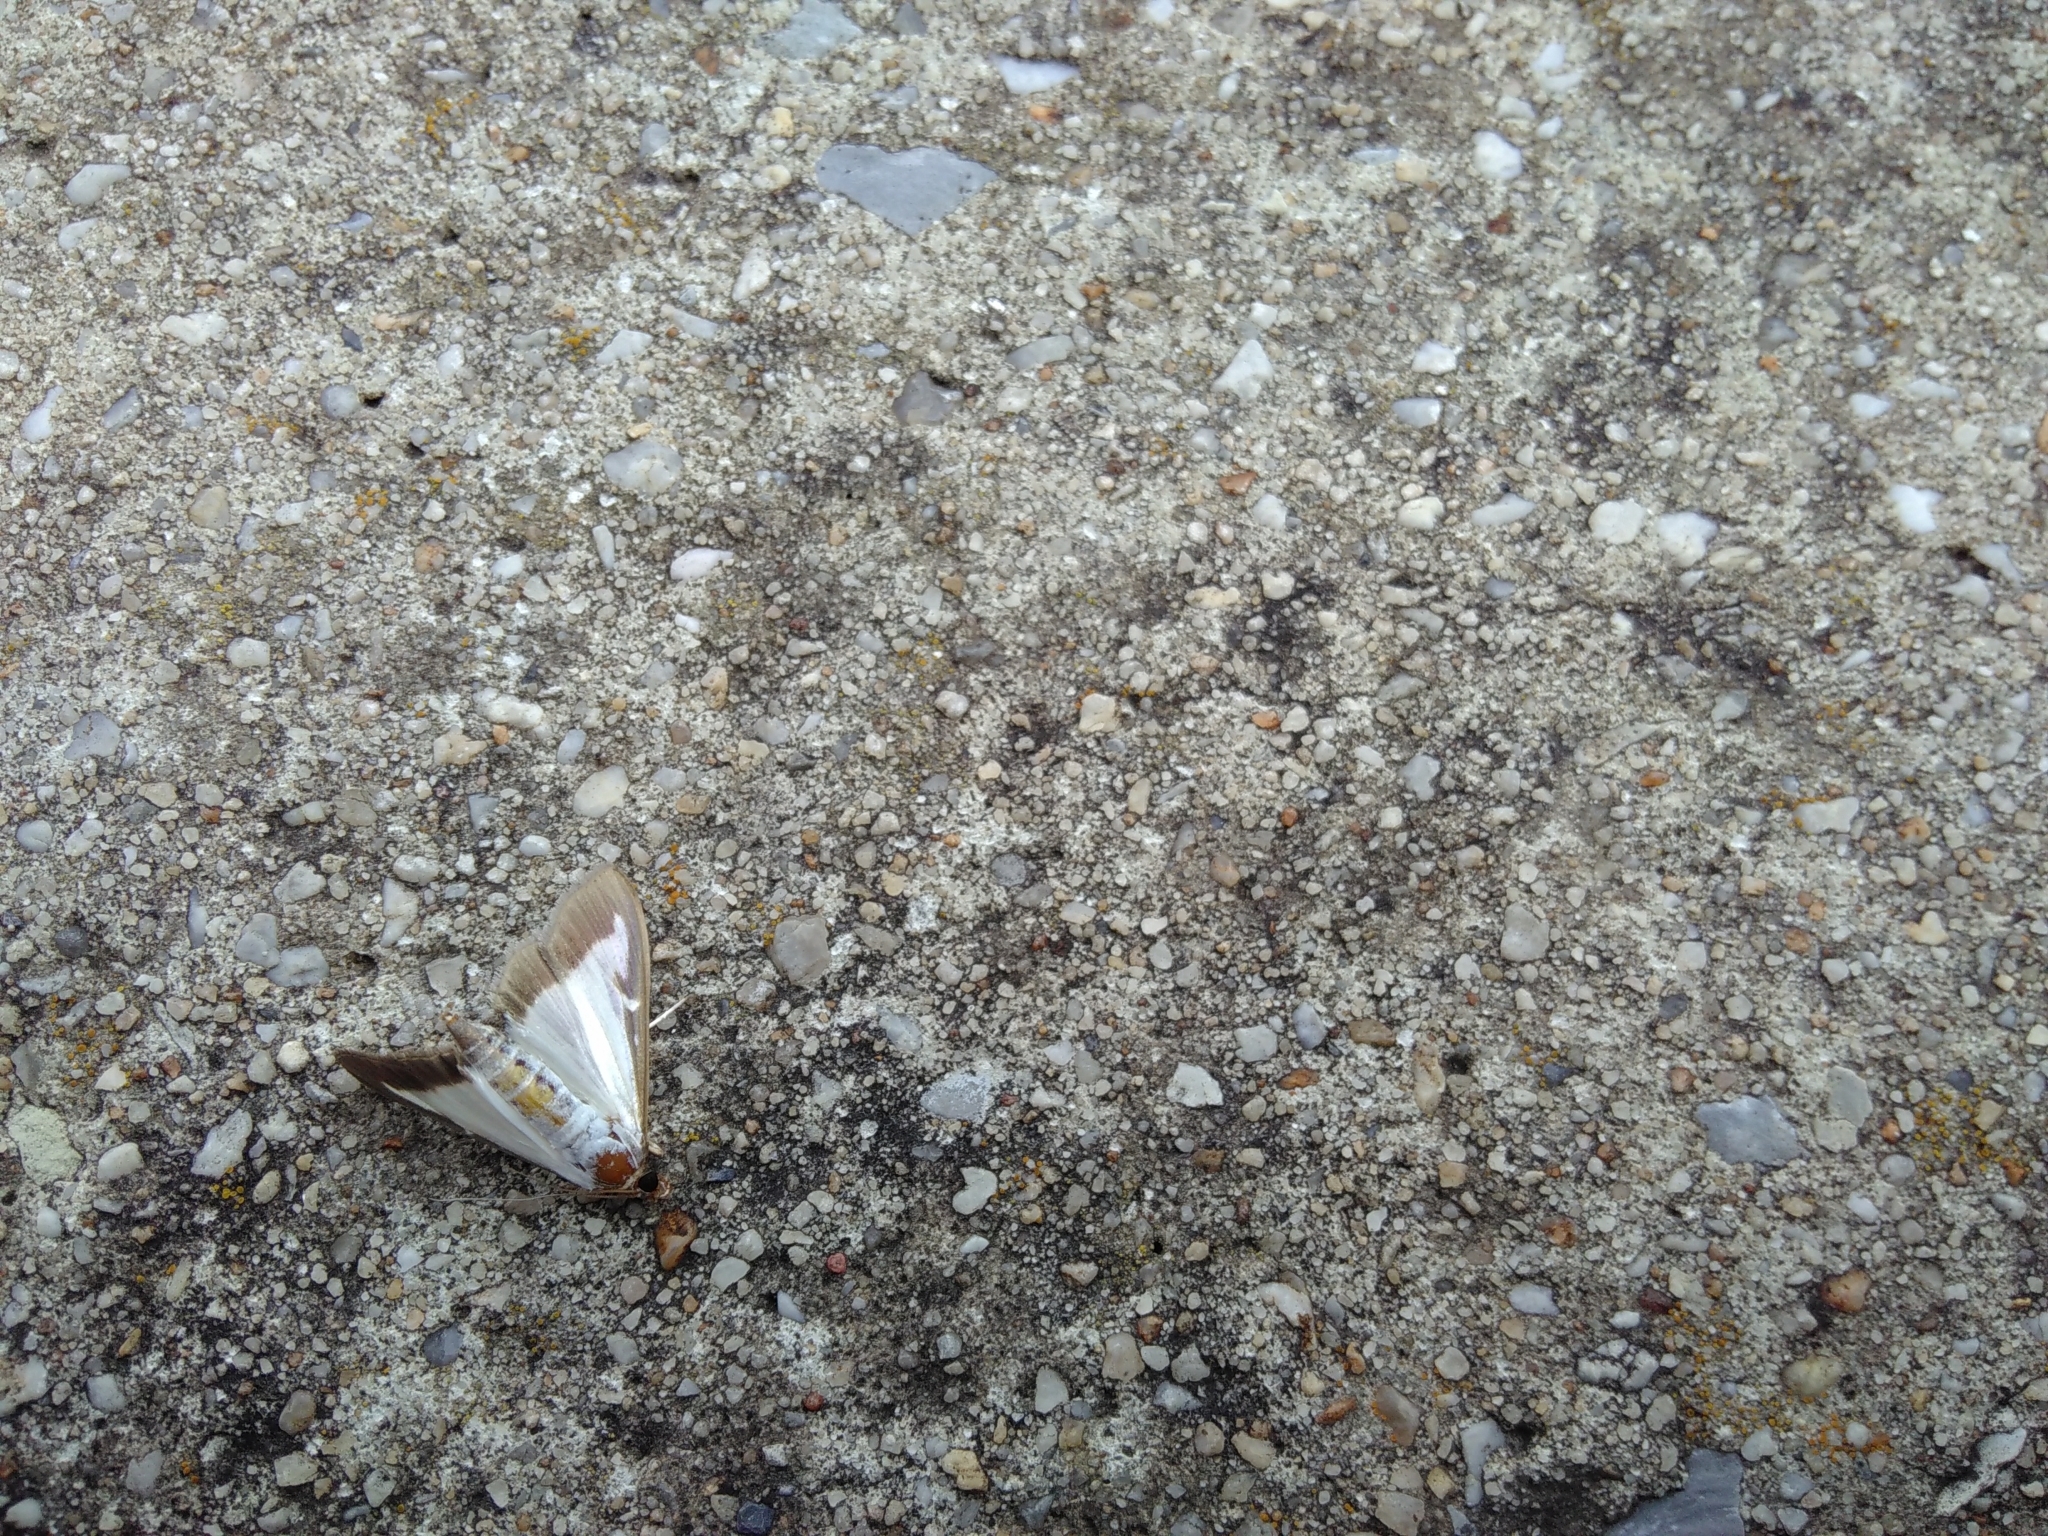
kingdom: Animalia
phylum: Arthropoda
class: Insecta
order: Lepidoptera
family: Crambidae
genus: Cydalima
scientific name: Cydalima perspectalis
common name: Box tree moth
